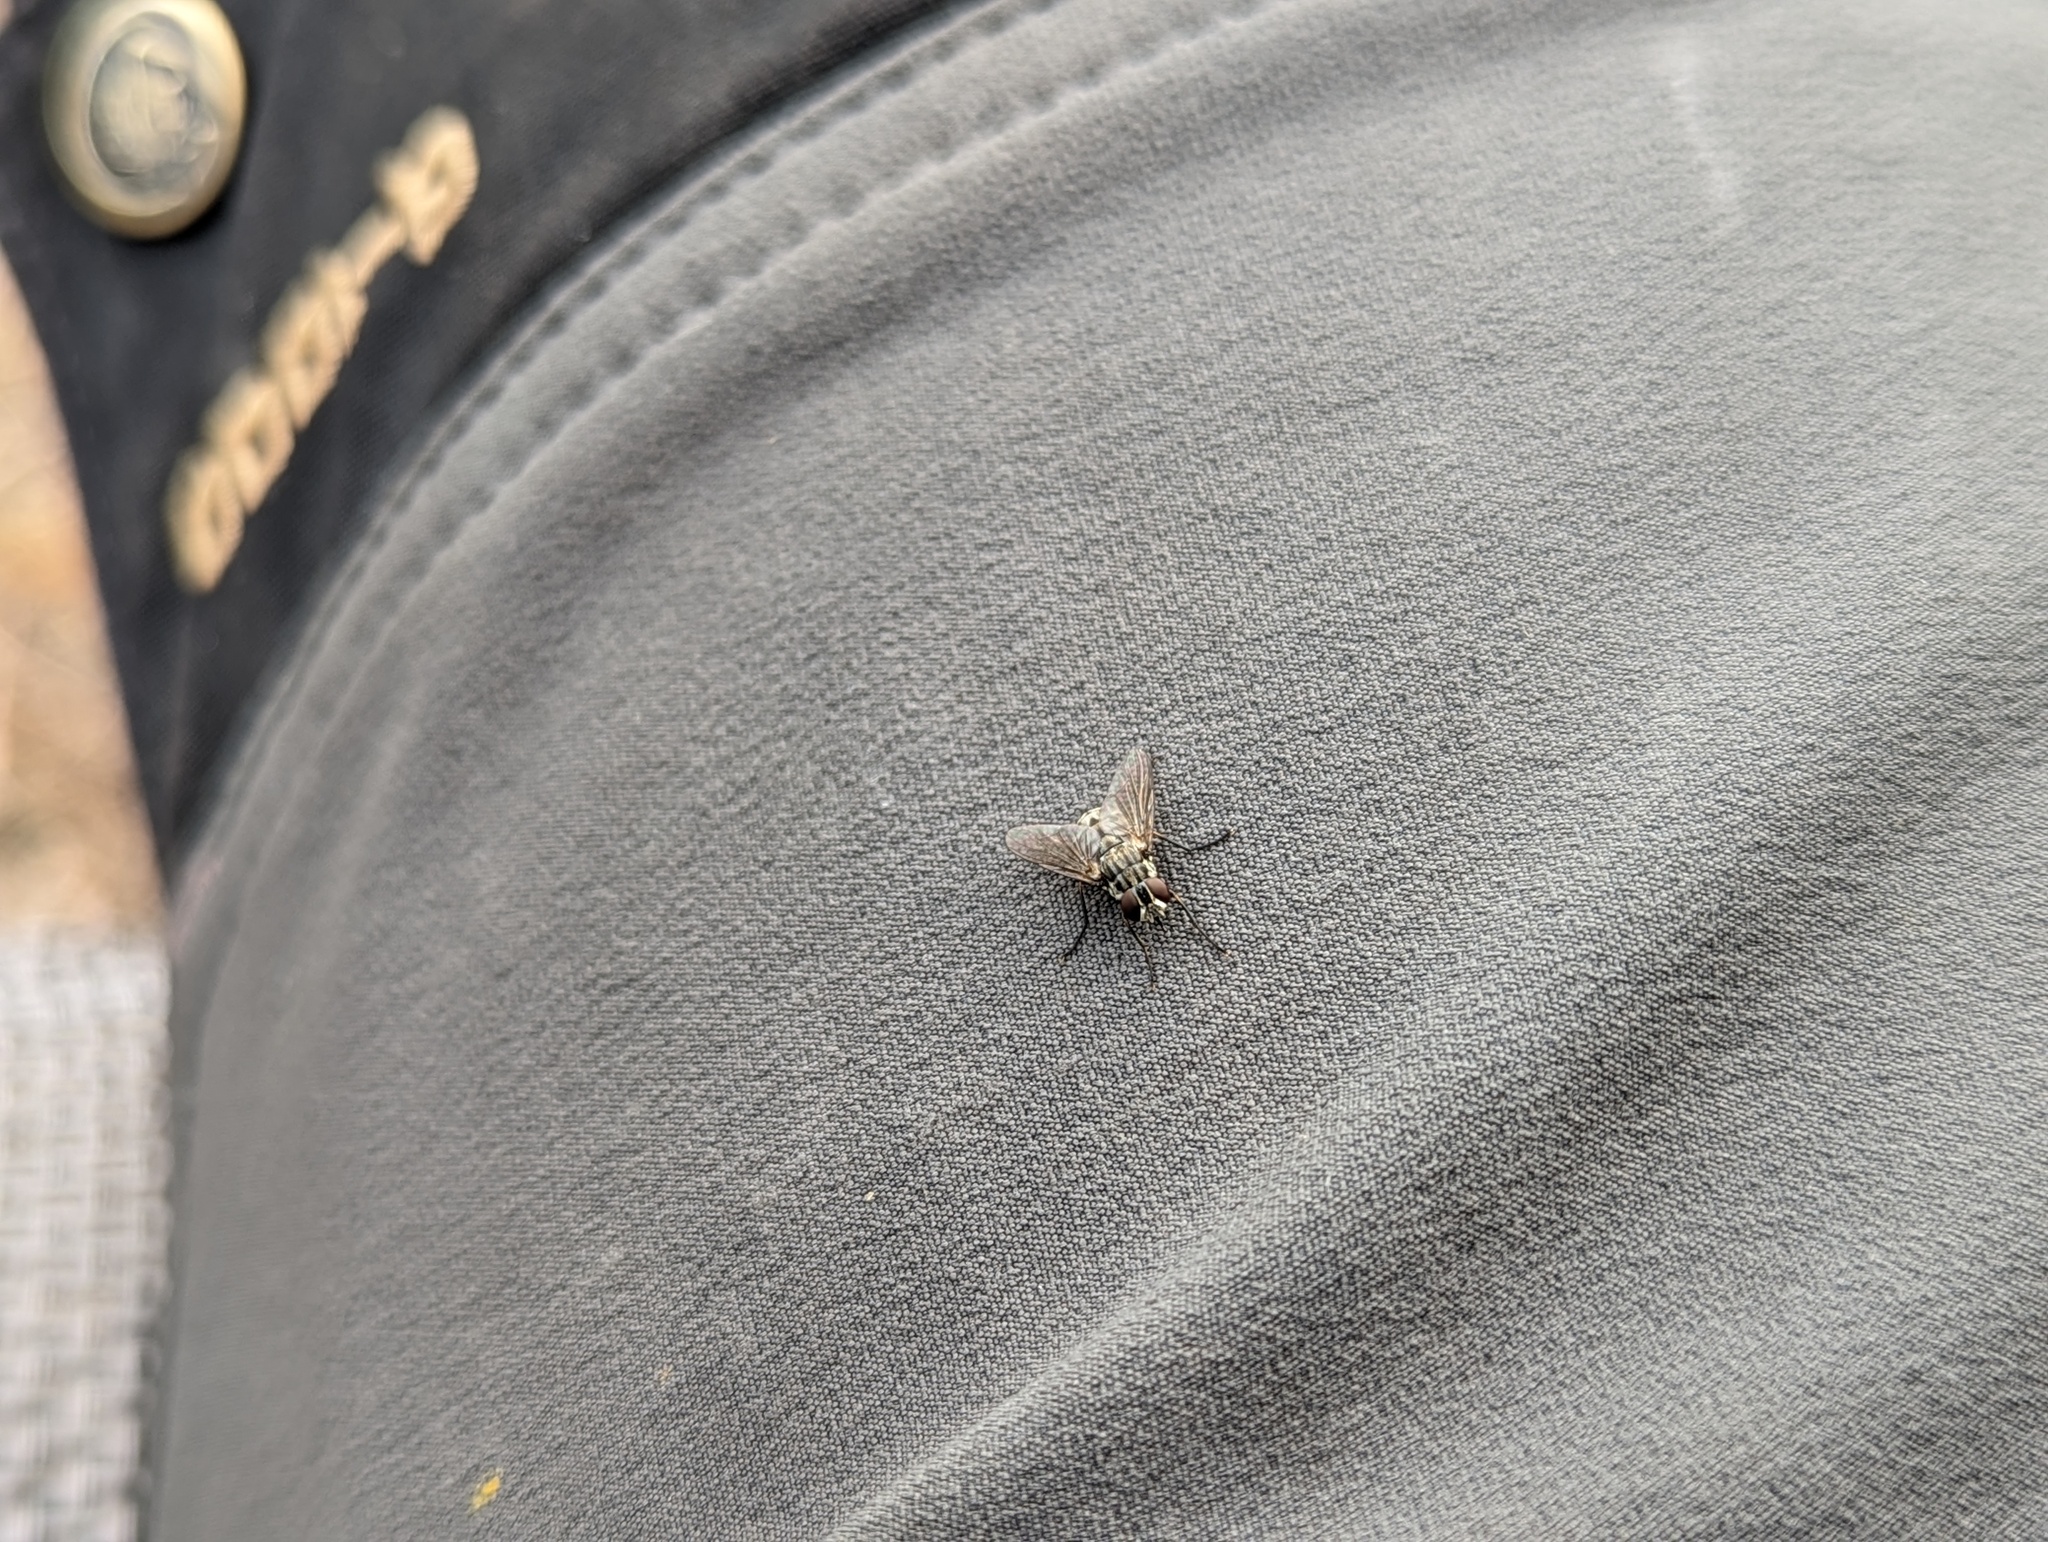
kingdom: Animalia
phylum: Arthropoda
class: Insecta
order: Diptera
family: Muscidae
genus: Stomoxys
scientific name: Stomoxys calcitrans
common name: Stable fly
